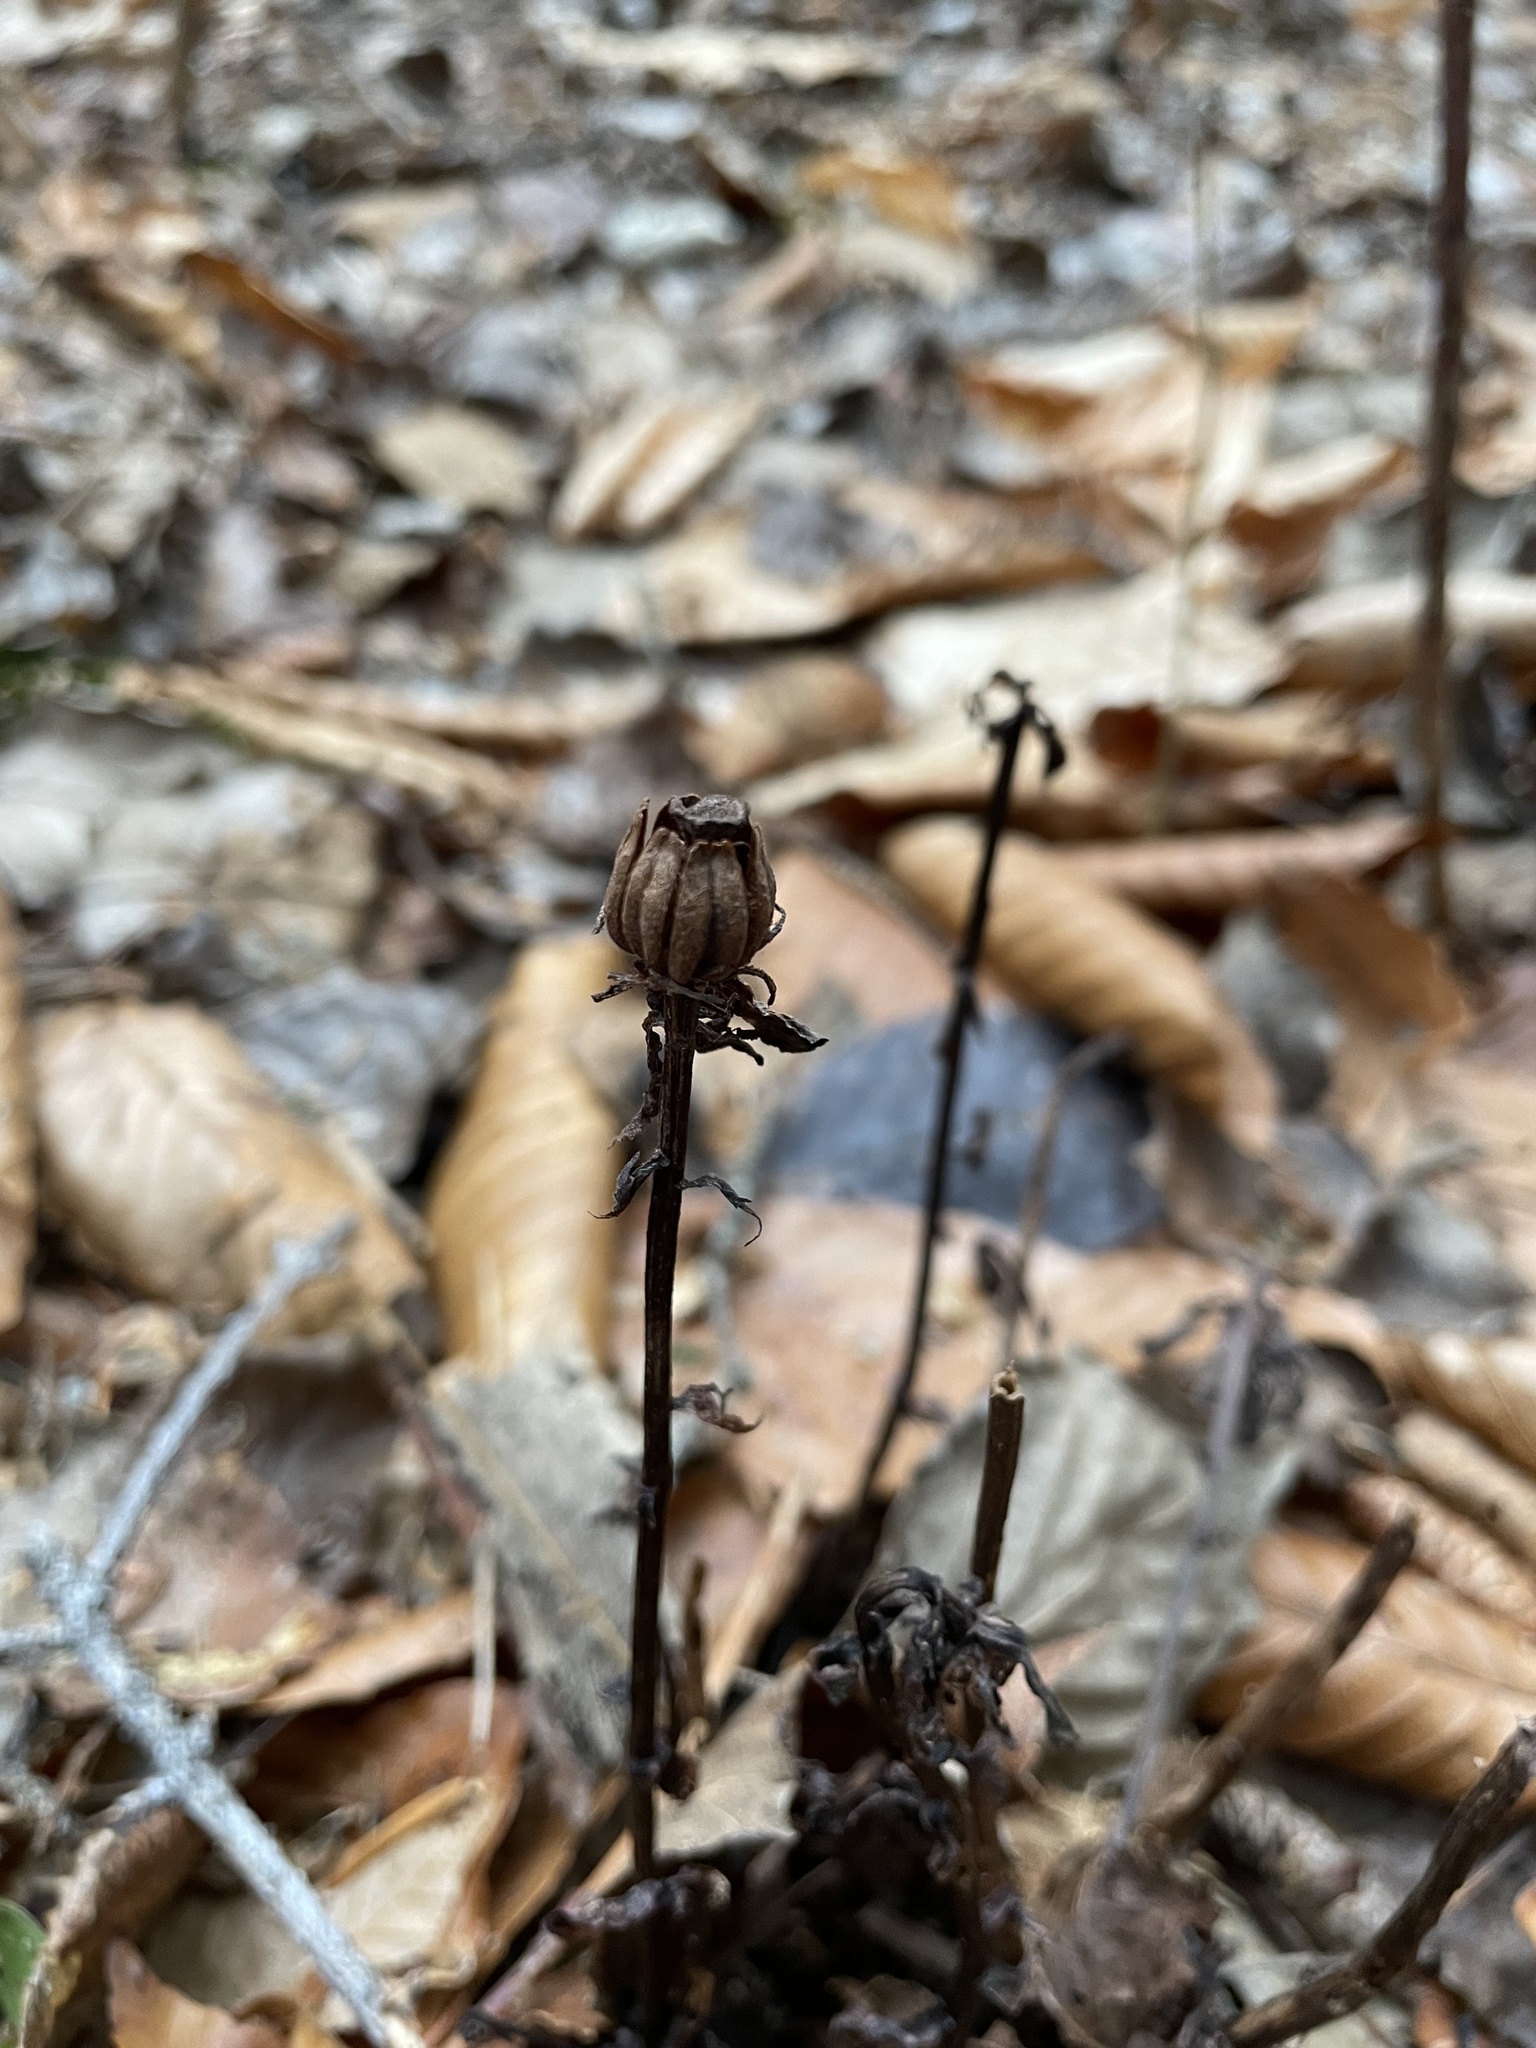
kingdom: Plantae
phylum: Tracheophyta
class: Magnoliopsida
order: Ericales
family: Ericaceae
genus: Monotropa
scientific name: Monotropa uniflora
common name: Convulsion root
